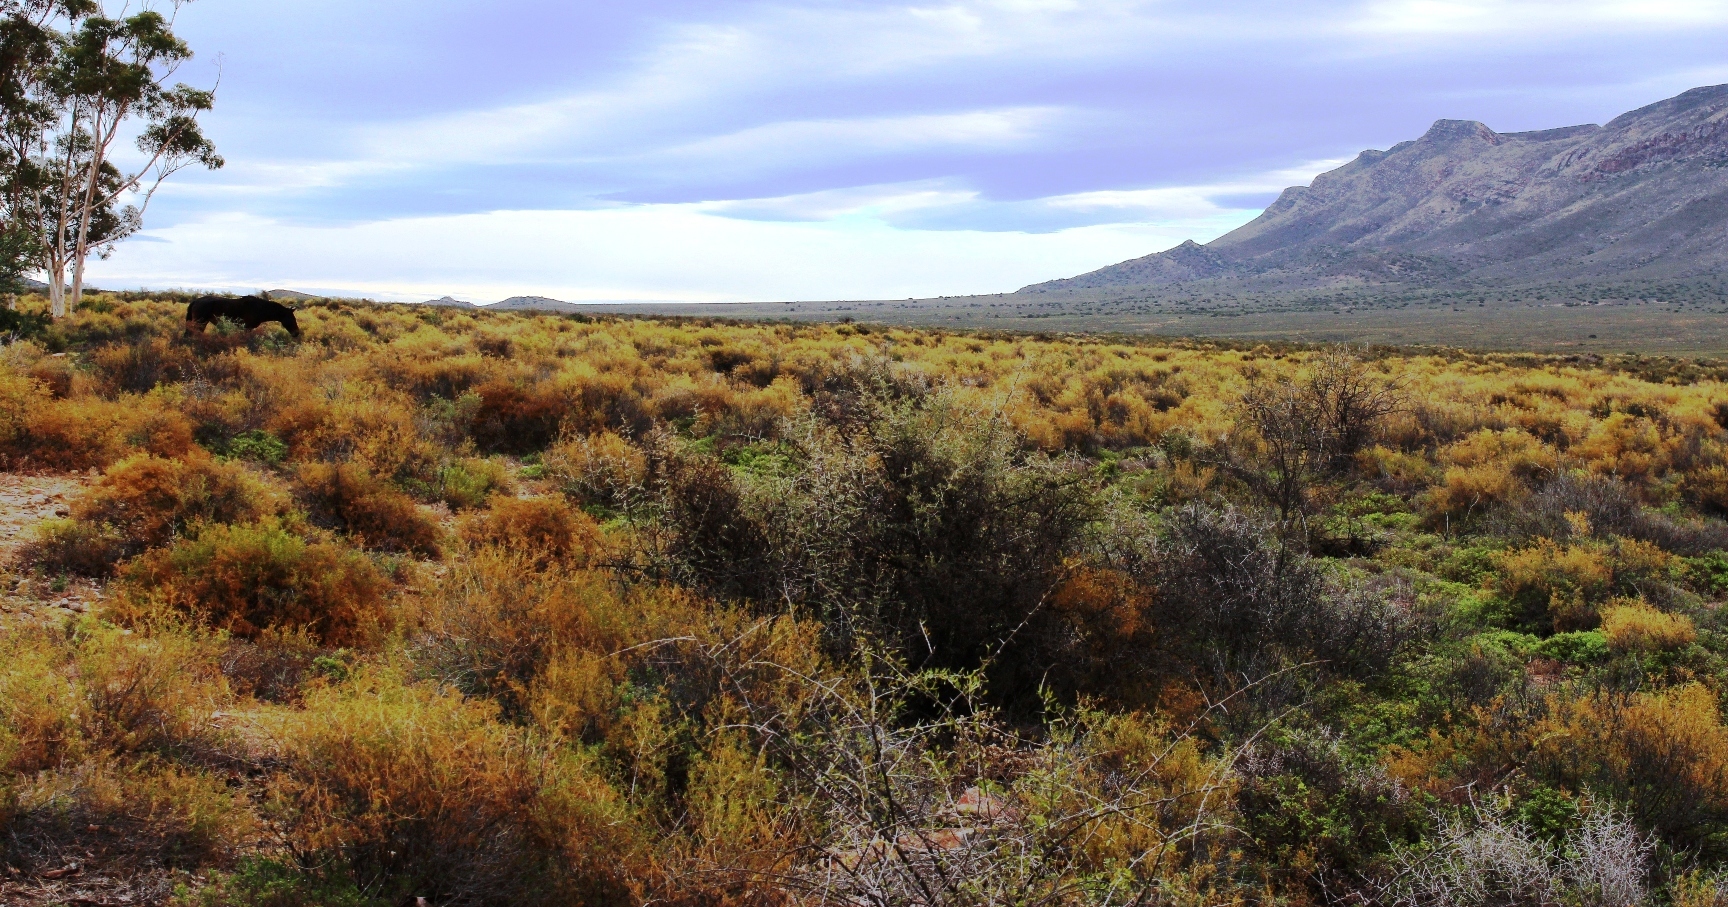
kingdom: Plantae
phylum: Tracheophyta
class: Magnoliopsida
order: Caryophyllales
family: Aizoaceae
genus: Aizoon
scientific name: Aizoon africanum
